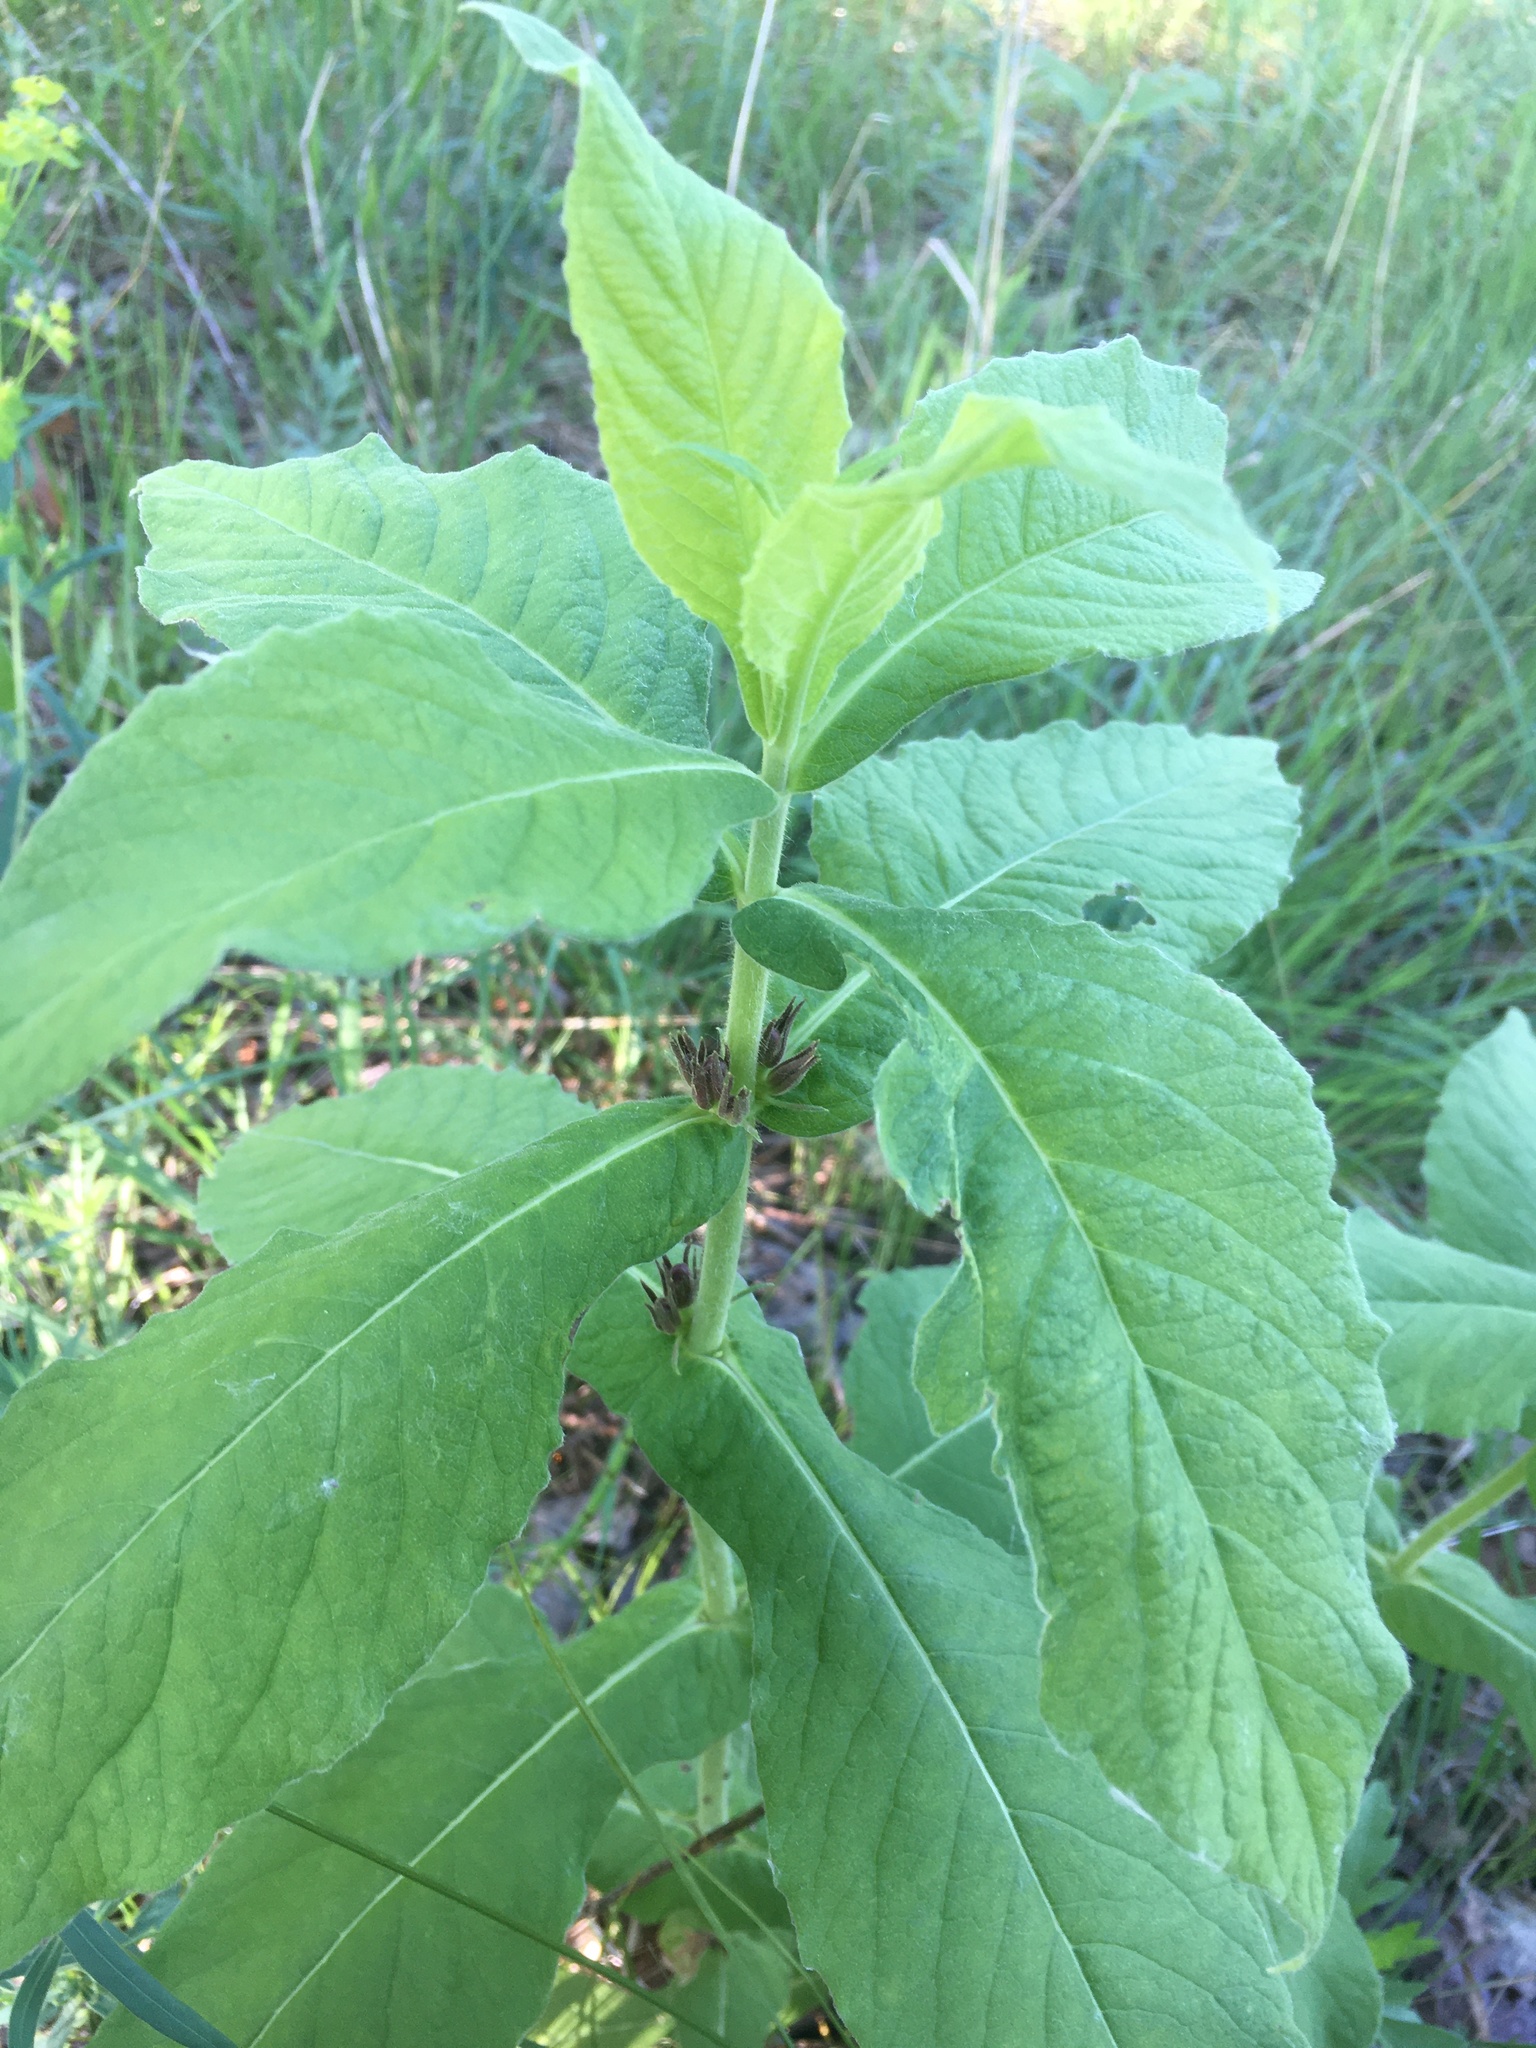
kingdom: Plantae
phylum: Tracheophyta
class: Magnoliopsida
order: Dipsacales
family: Caprifoliaceae
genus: Triosteum
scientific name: Triosteum perfoliatum
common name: Common horse-gentian
